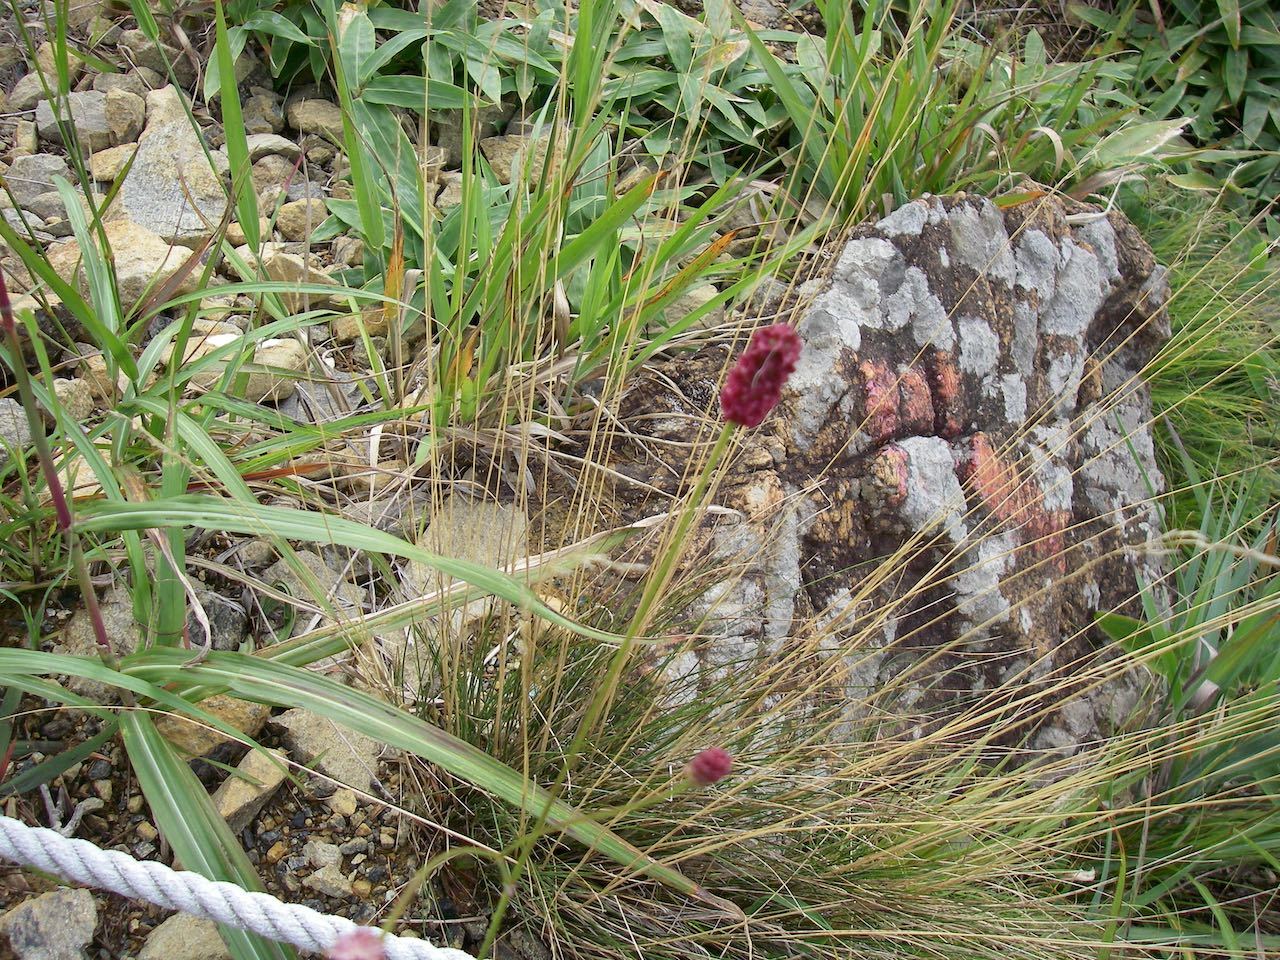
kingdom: Plantae
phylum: Tracheophyta
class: Magnoliopsida
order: Rosales
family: Rosaceae
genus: Sanguisorba
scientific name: Sanguisorba officinalis
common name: Great burnet
